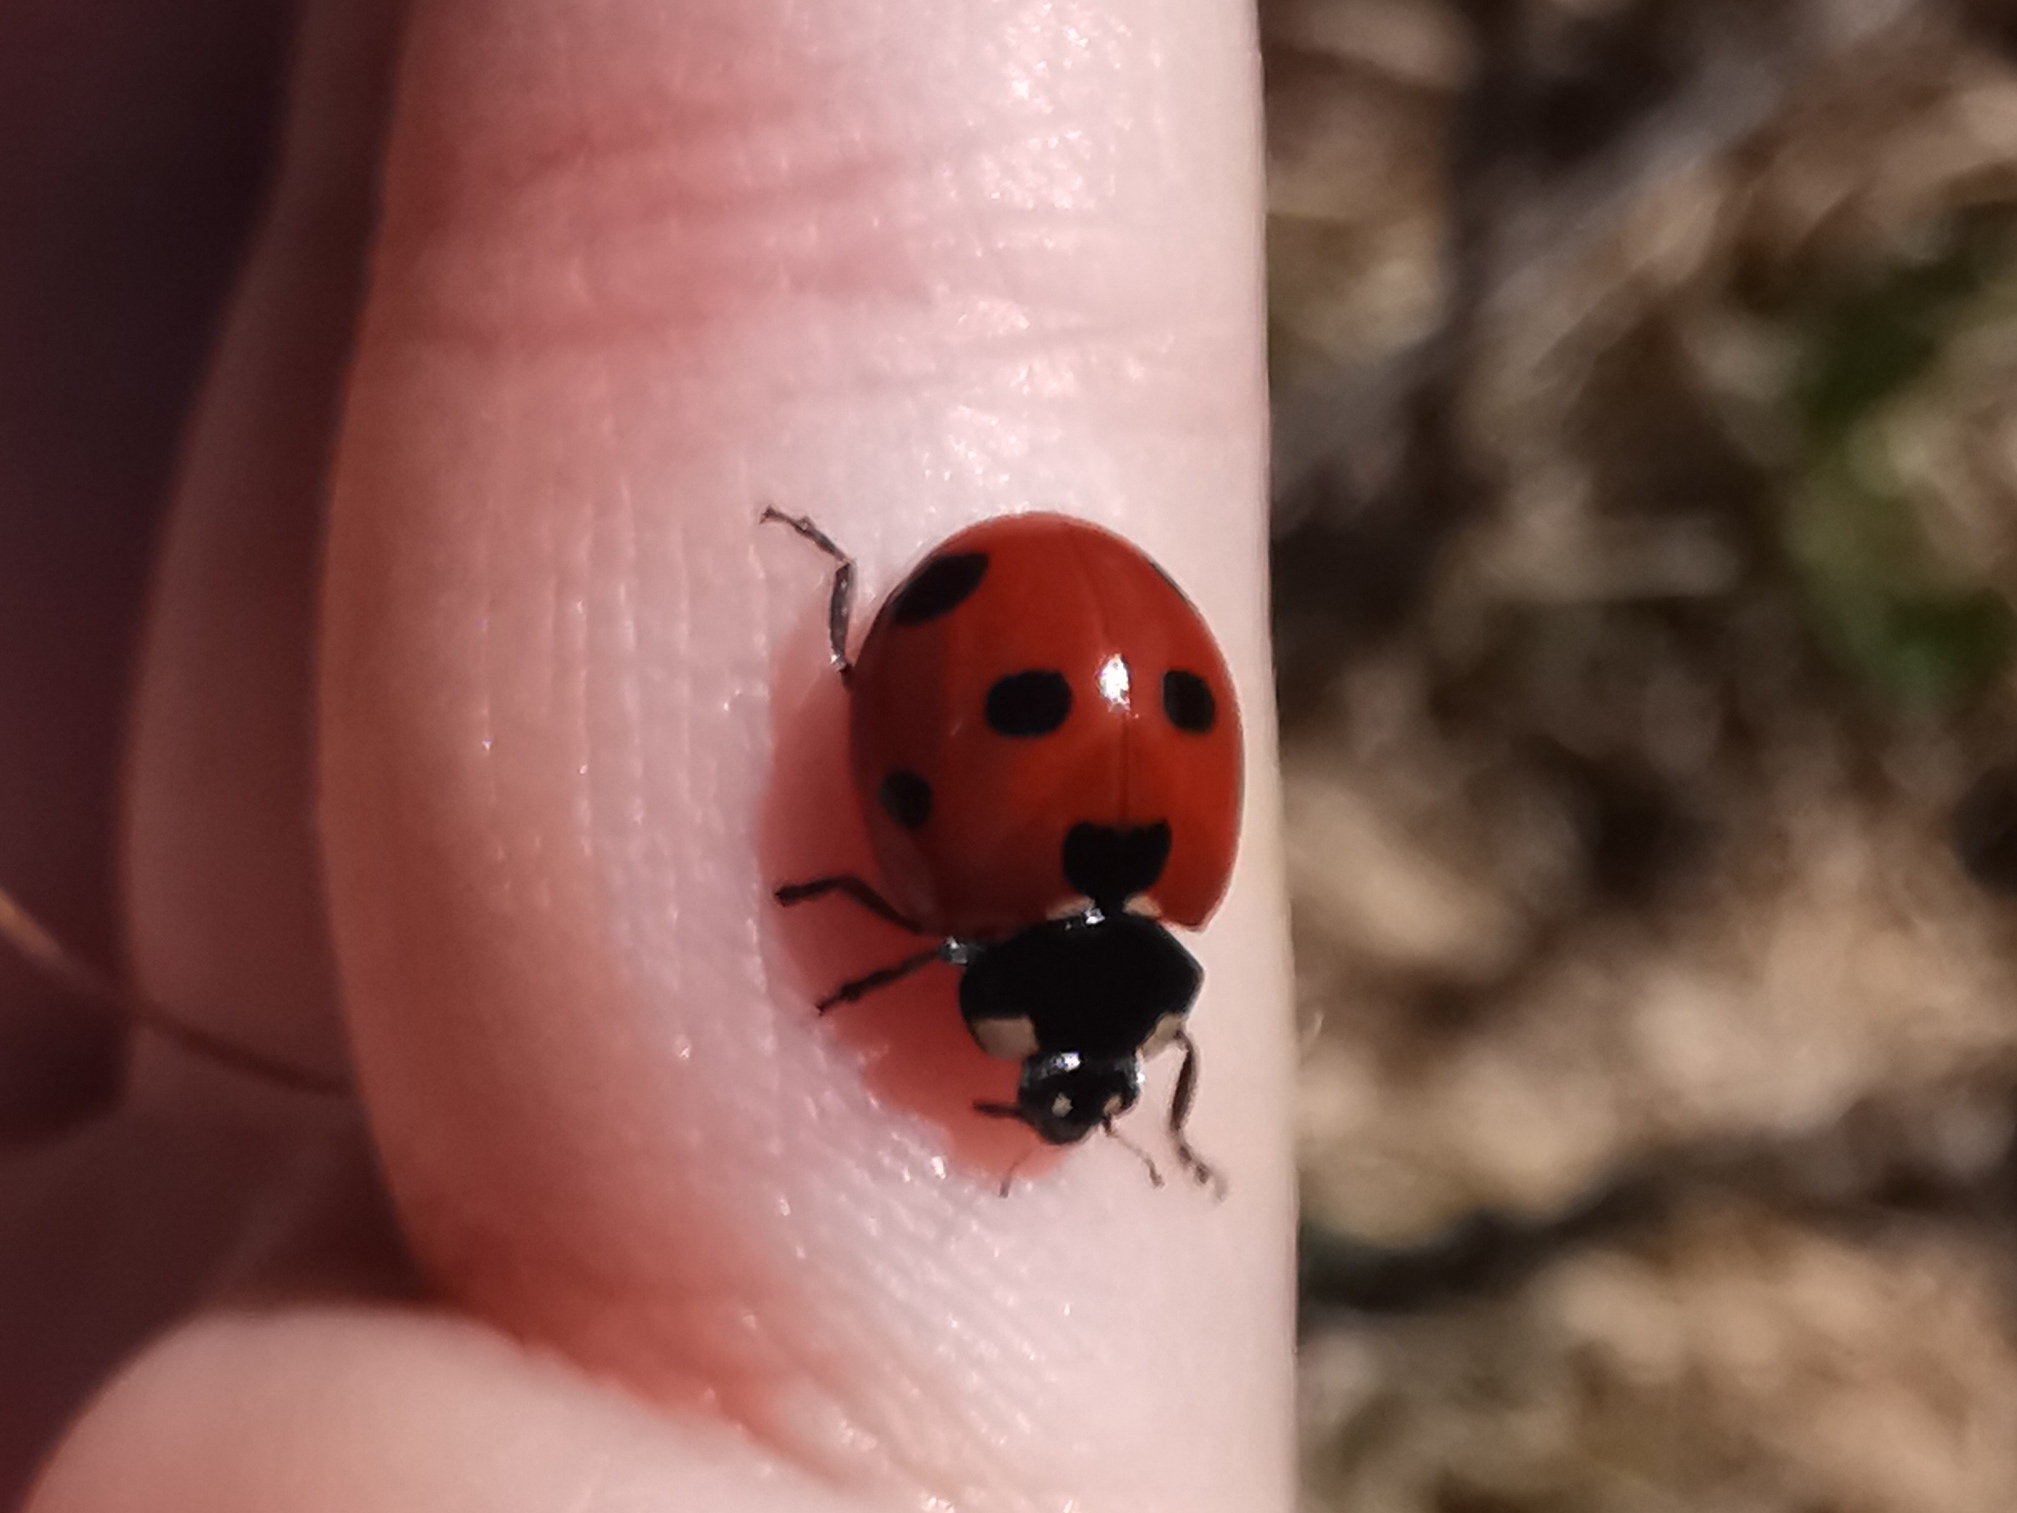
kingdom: Animalia
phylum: Arthropoda
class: Insecta
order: Coleoptera
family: Coccinellidae
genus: Coccinella
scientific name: Coccinella septempunctata
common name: Sevenspotted lady beetle
